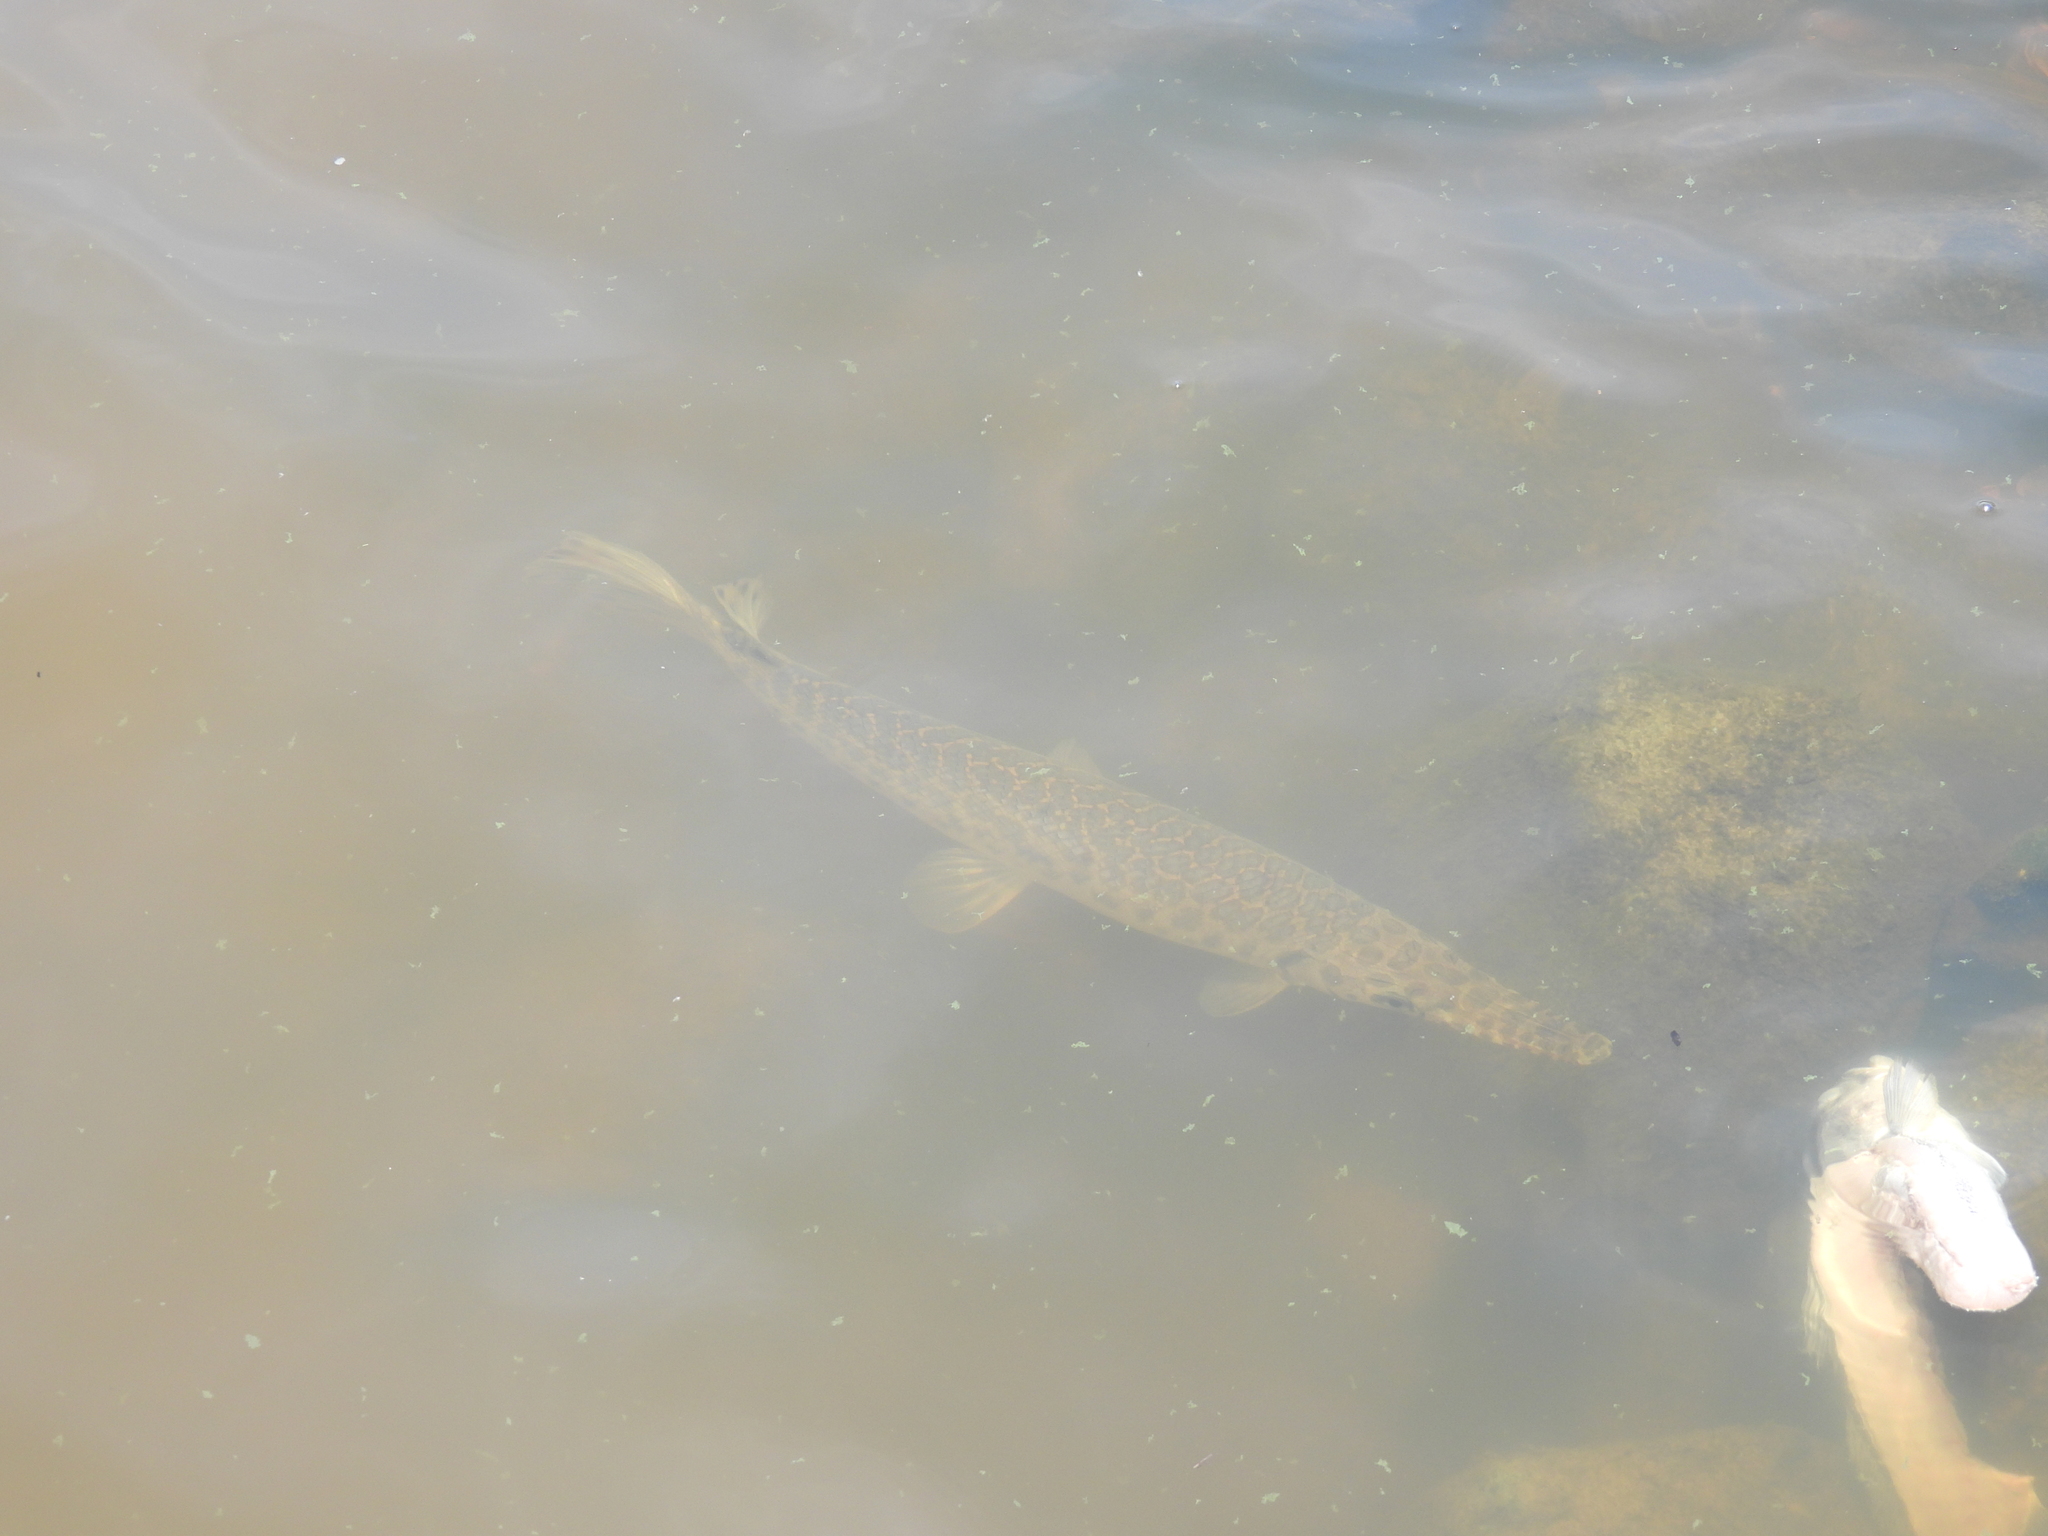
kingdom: Animalia
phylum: Chordata
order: Lepisosteiformes
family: Lepisosteidae
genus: Lepisosteus
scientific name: Lepisosteus oculatus
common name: Spotted gar
